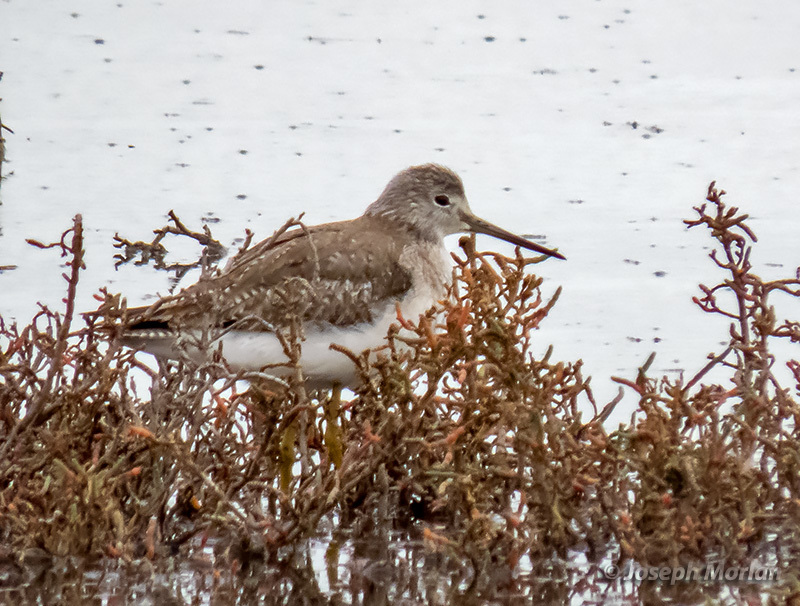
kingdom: Animalia
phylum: Chordata
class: Aves
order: Charadriiformes
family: Scolopacidae
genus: Tringa
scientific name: Tringa melanoleuca
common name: Greater yellowlegs
